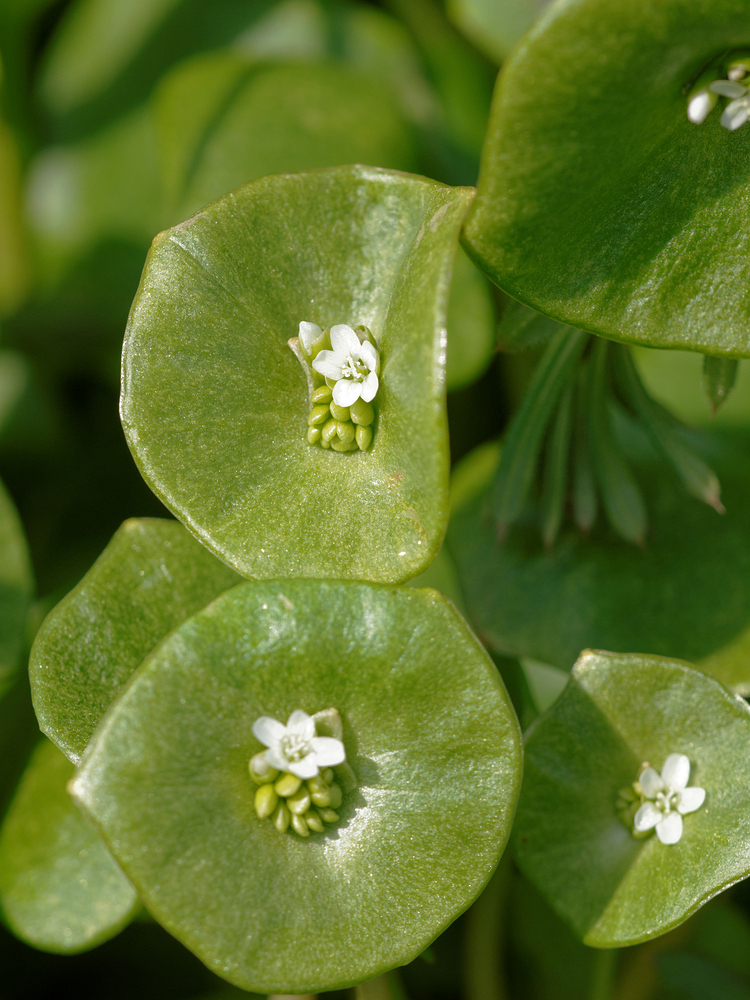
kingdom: Plantae
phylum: Tracheophyta
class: Magnoliopsida
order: Caryophyllales
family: Montiaceae
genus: Claytonia
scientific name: Claytonia perfoliata
